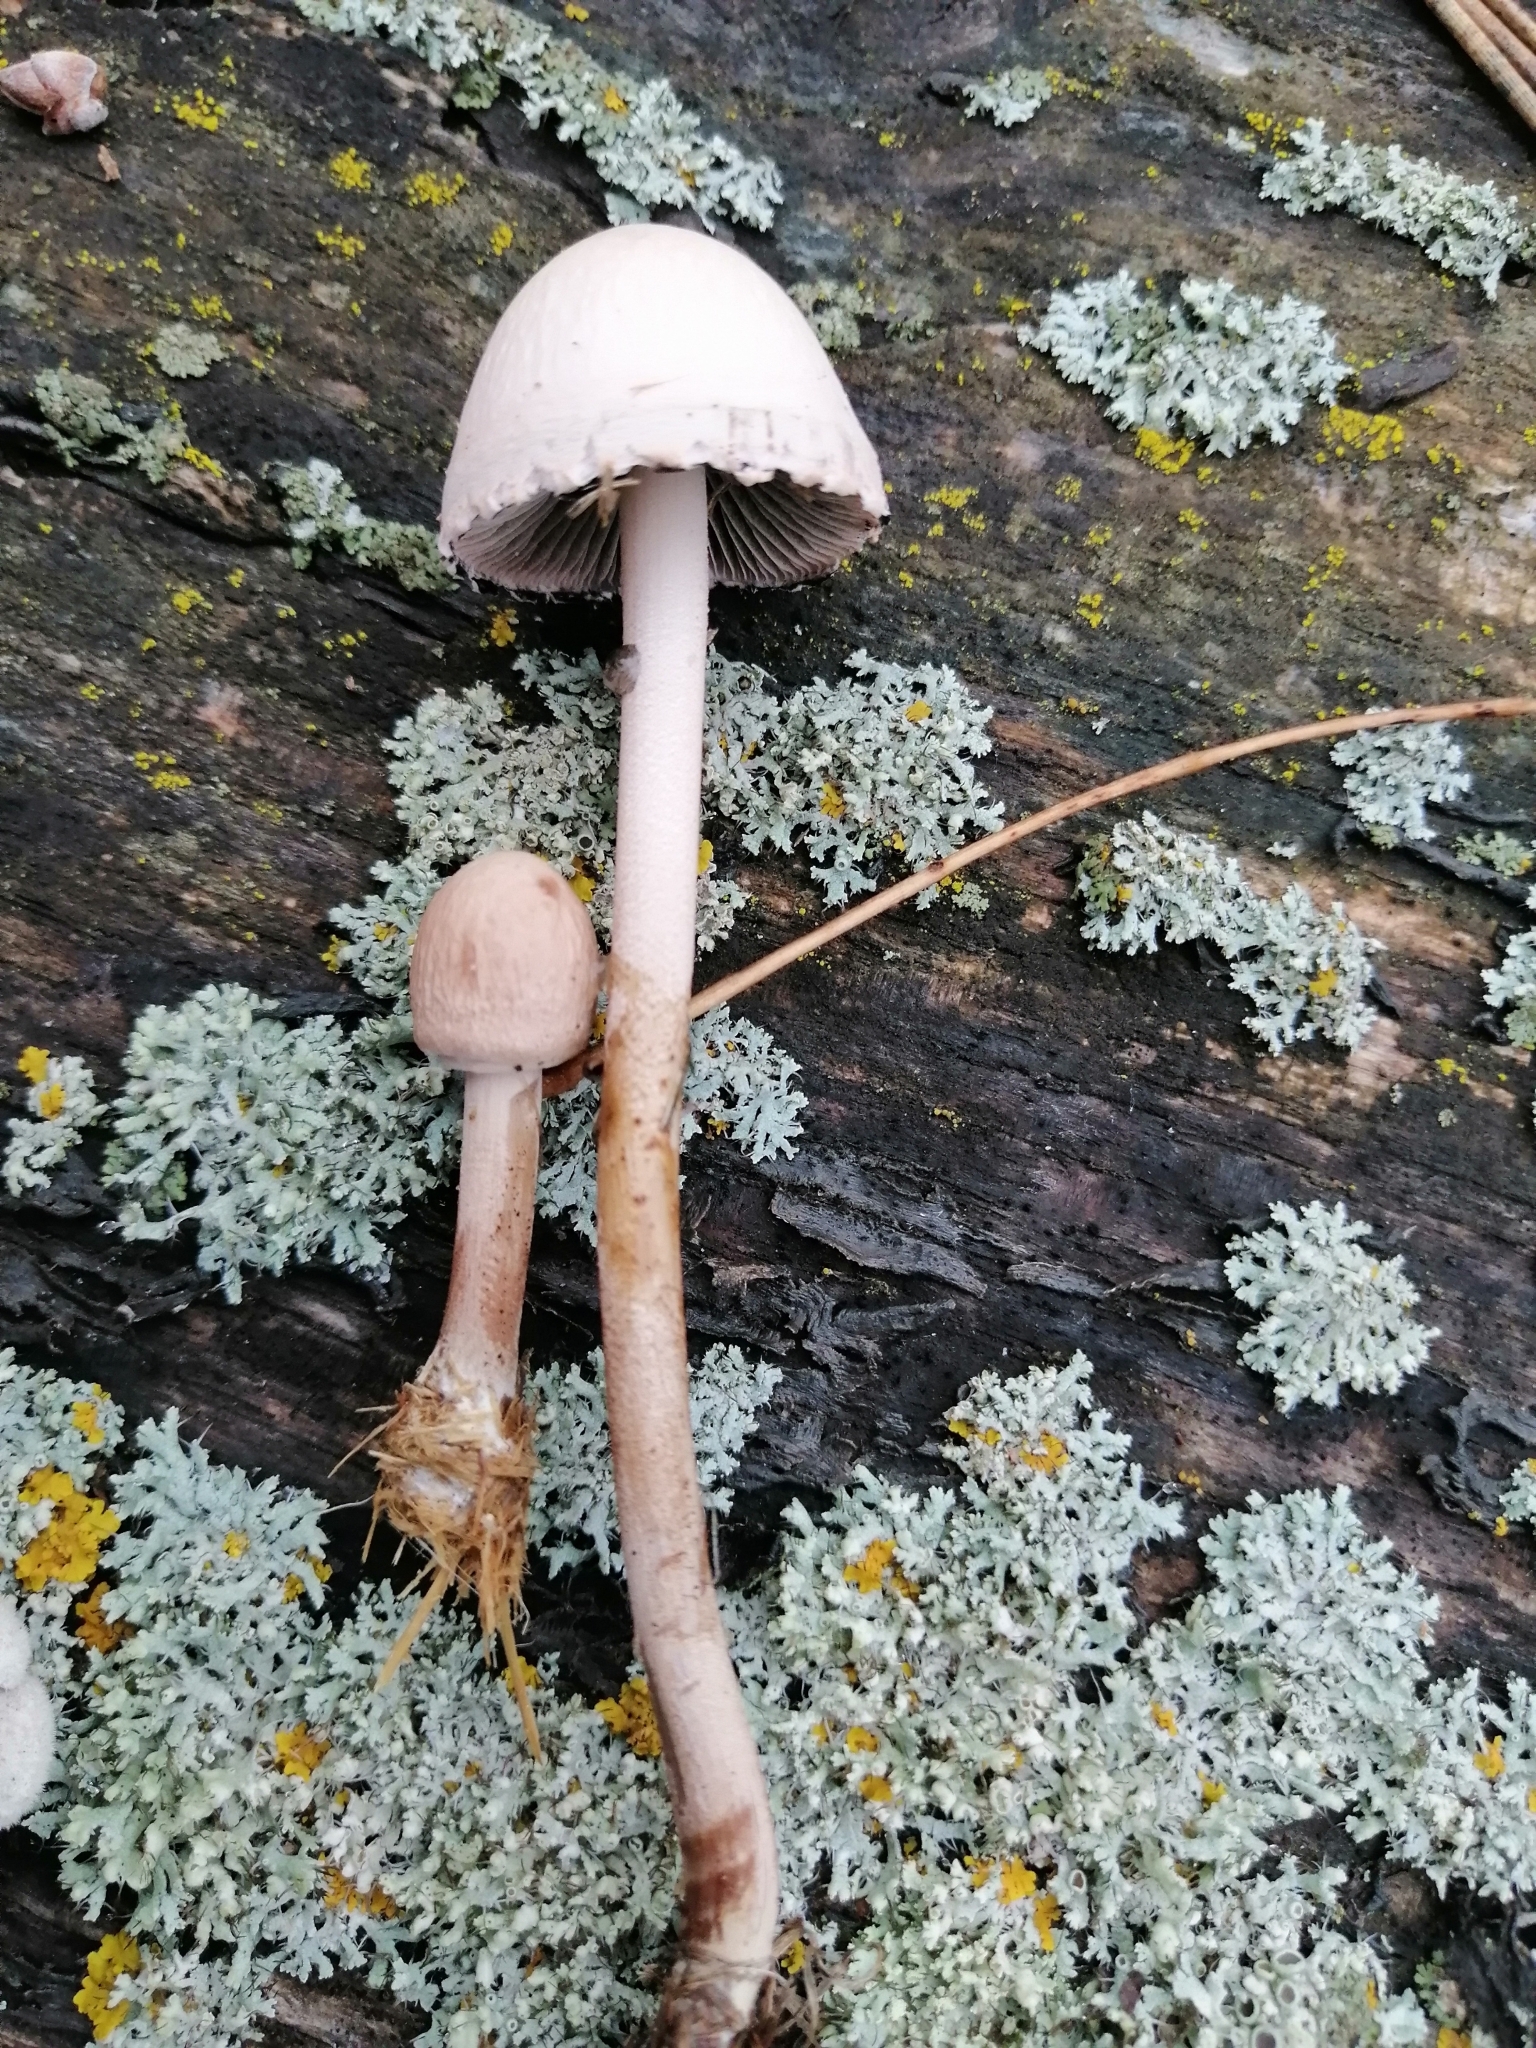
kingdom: Fungi
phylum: Basidiomycota
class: Agaricomycetes
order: Agaricales
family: Bolbitiaceae
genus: Panaeolus
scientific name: Panaeolus papilionaceus
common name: Petticoat mottlegill
